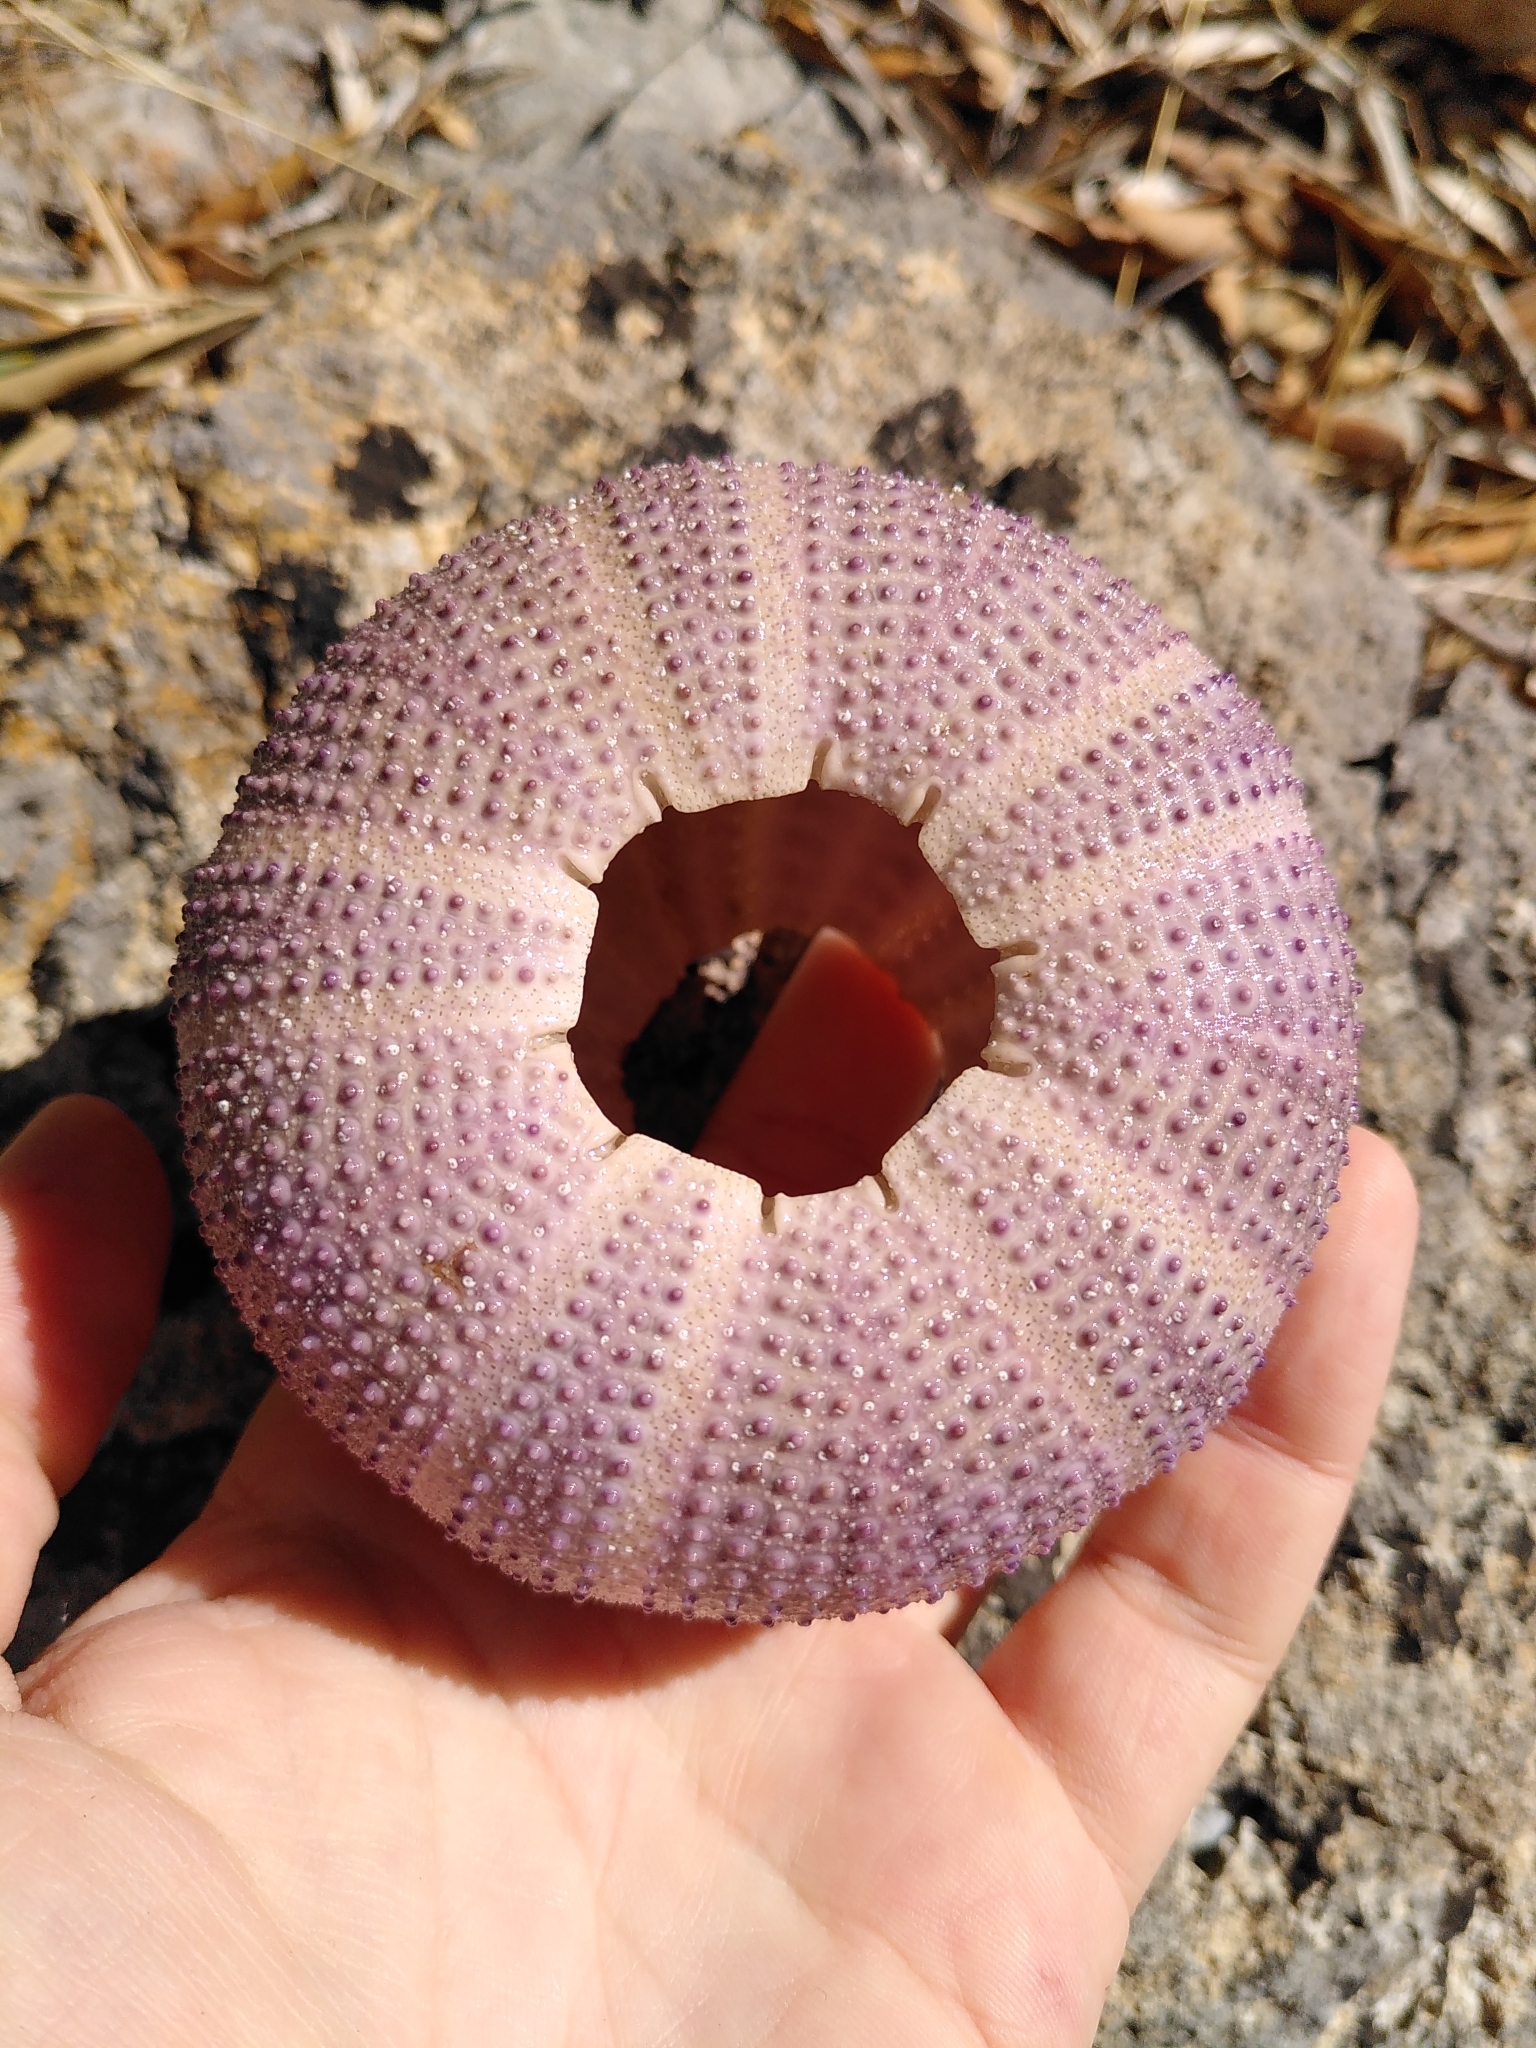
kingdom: Animalia
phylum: Echinodermata
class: Echinoidea
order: Camarodonta
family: Toxopneustidae
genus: Sphaerechinus
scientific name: Sphaerechinus granularis
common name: Violet sea urchin
